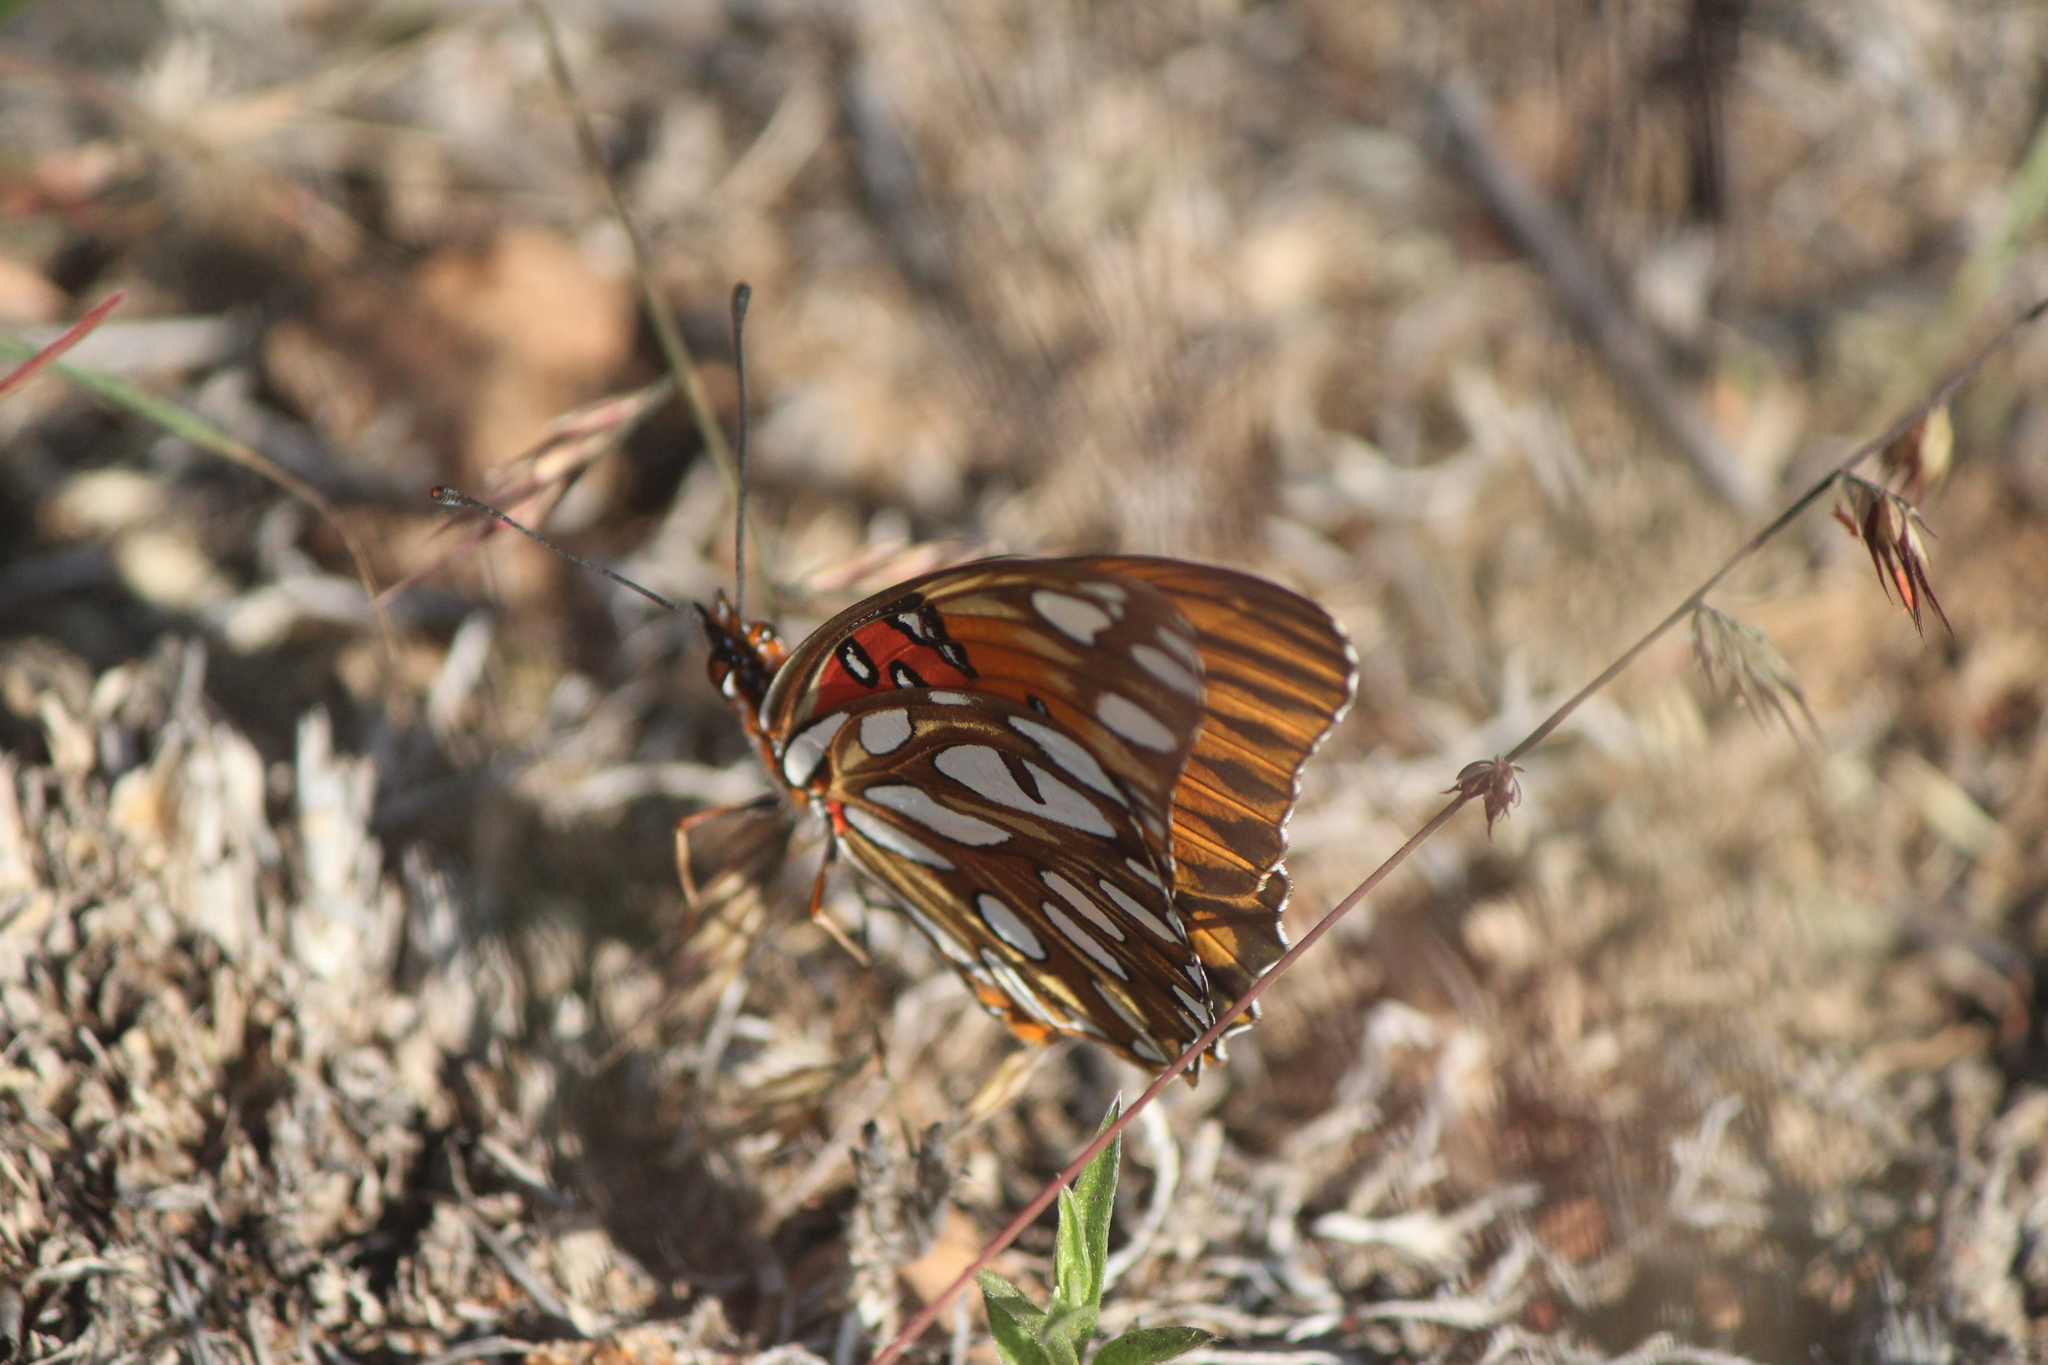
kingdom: Animalia
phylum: Arthropoda
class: Insecta
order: Lepidoptera
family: Nymphalidae
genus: Dione
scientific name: Dione vanillae
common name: Gulf fritillary
